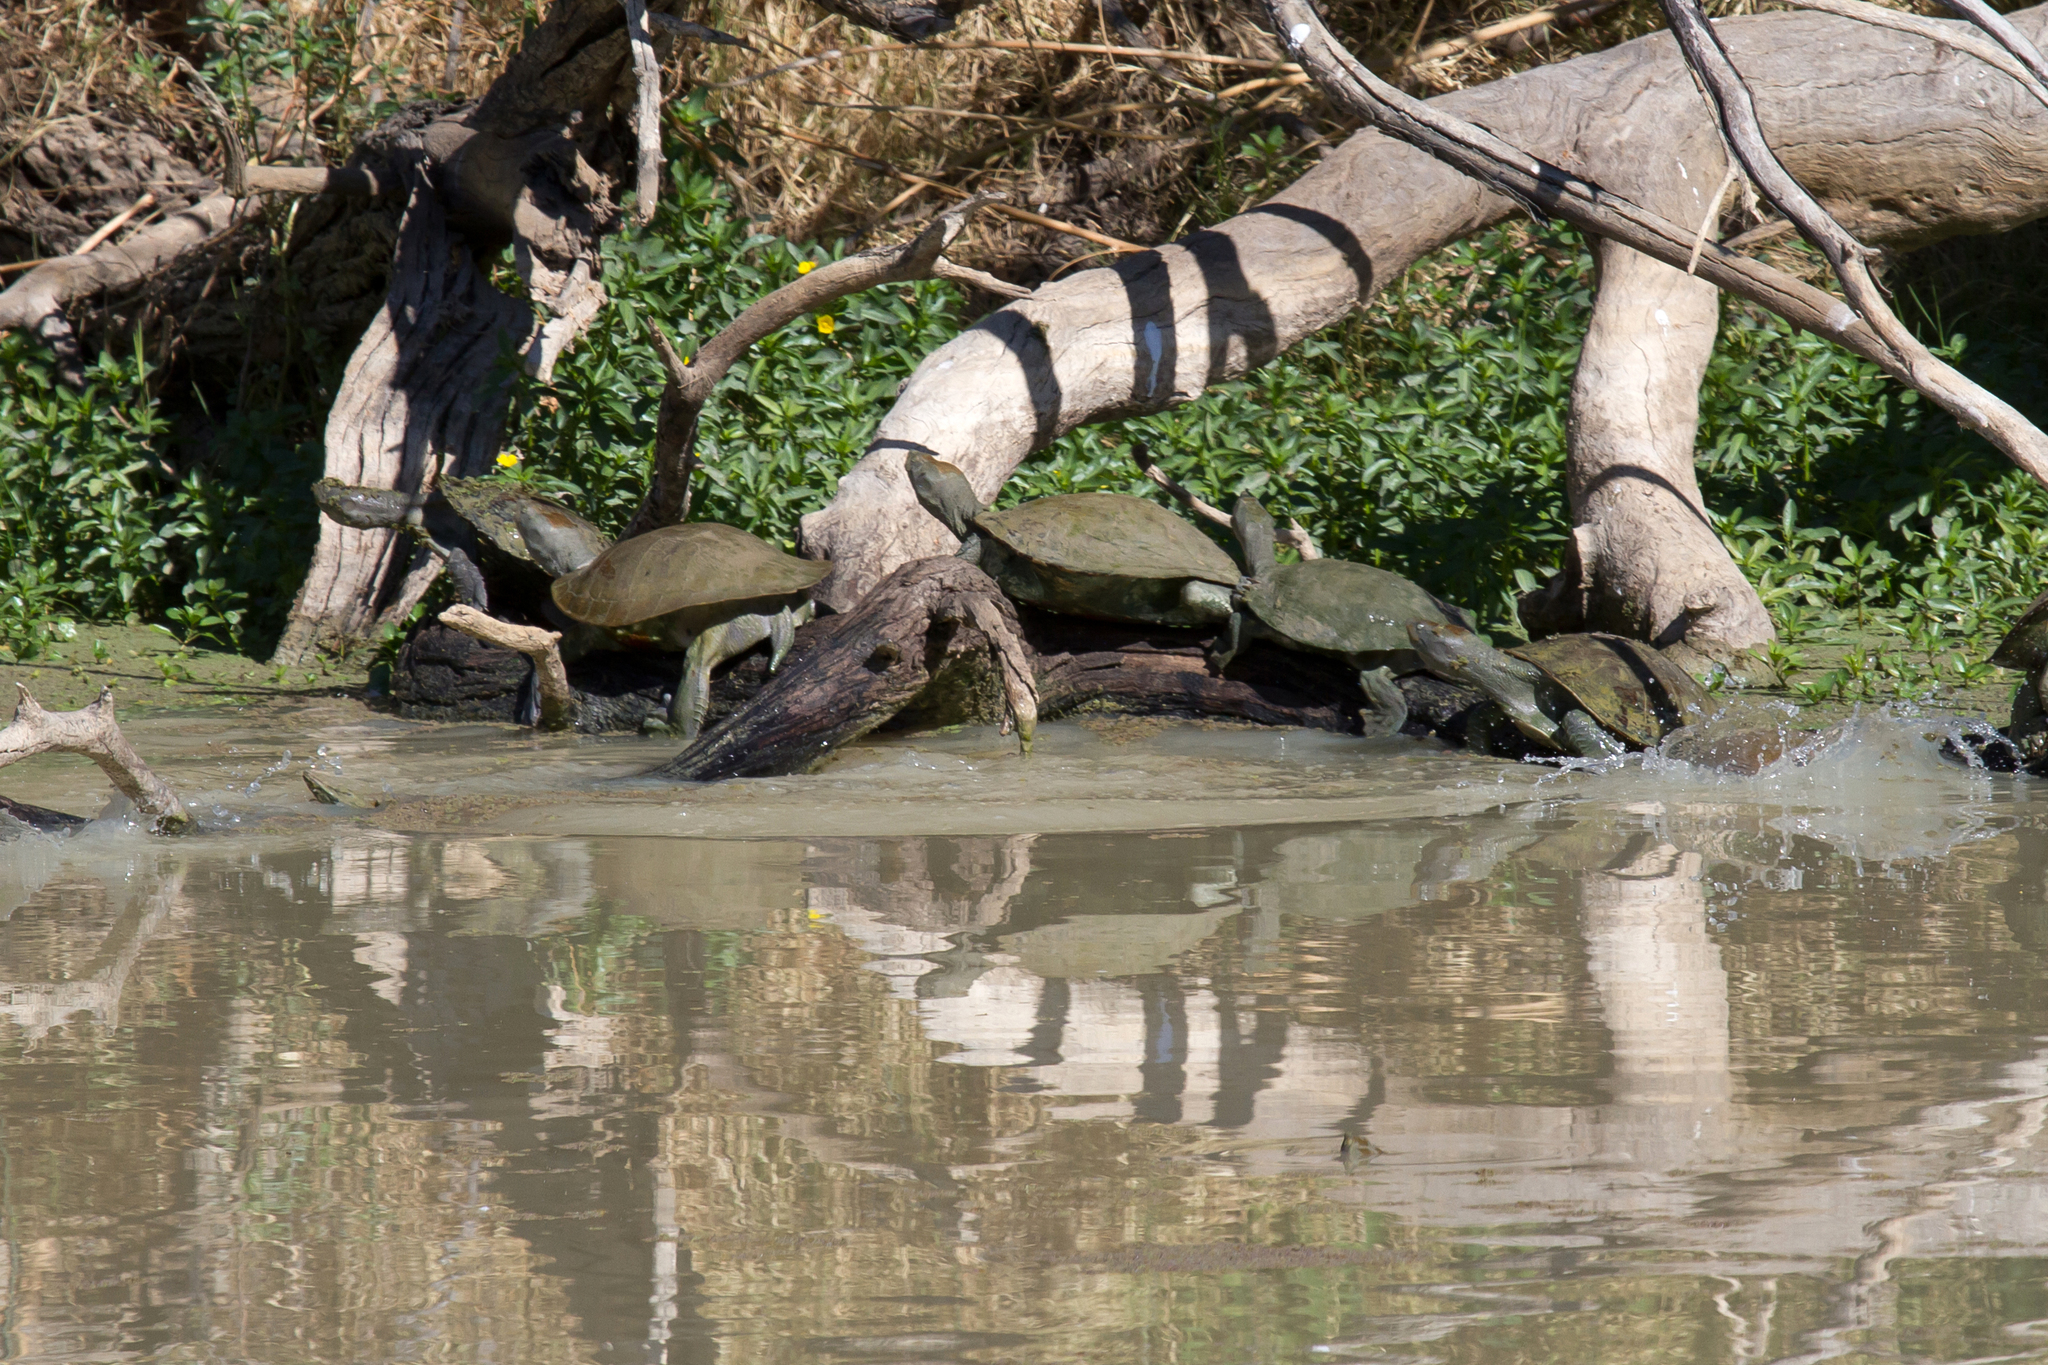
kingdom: Animalia
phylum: Chordata
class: Testudines
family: Chelidae
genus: Emydura
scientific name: Emydura macquarii
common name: Murray river turtle
